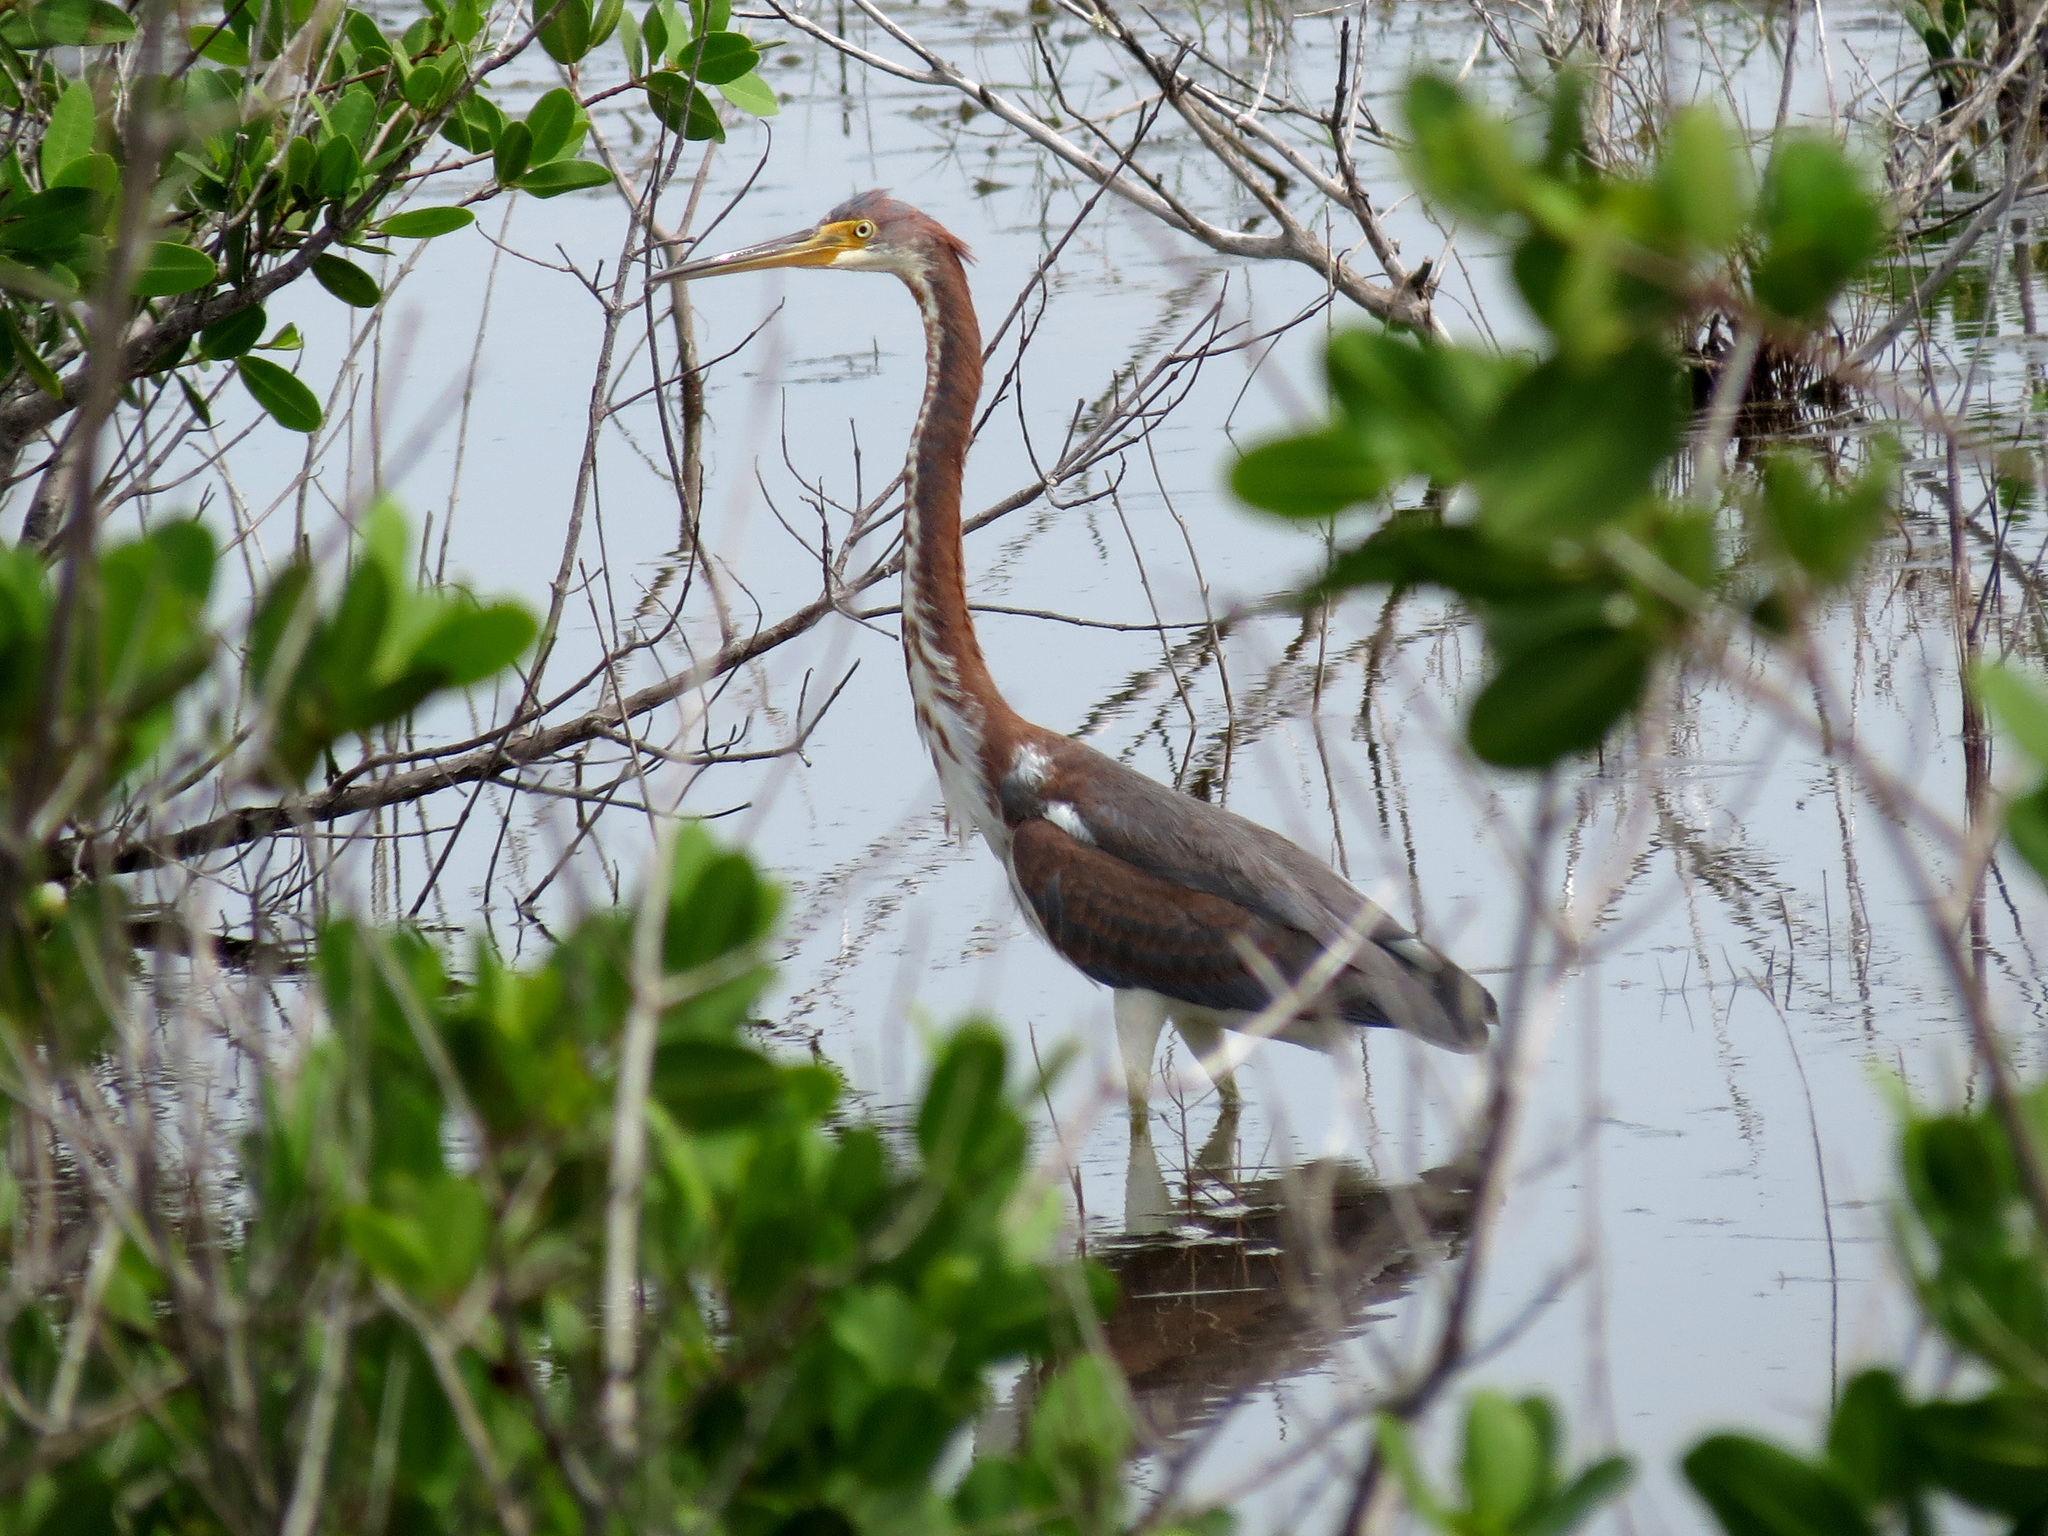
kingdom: Animalia
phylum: Chordata
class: Aves
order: Pelecaniformes
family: Ardeidae
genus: Egretta
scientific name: Egretta tricolor
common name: Tricolored heron
